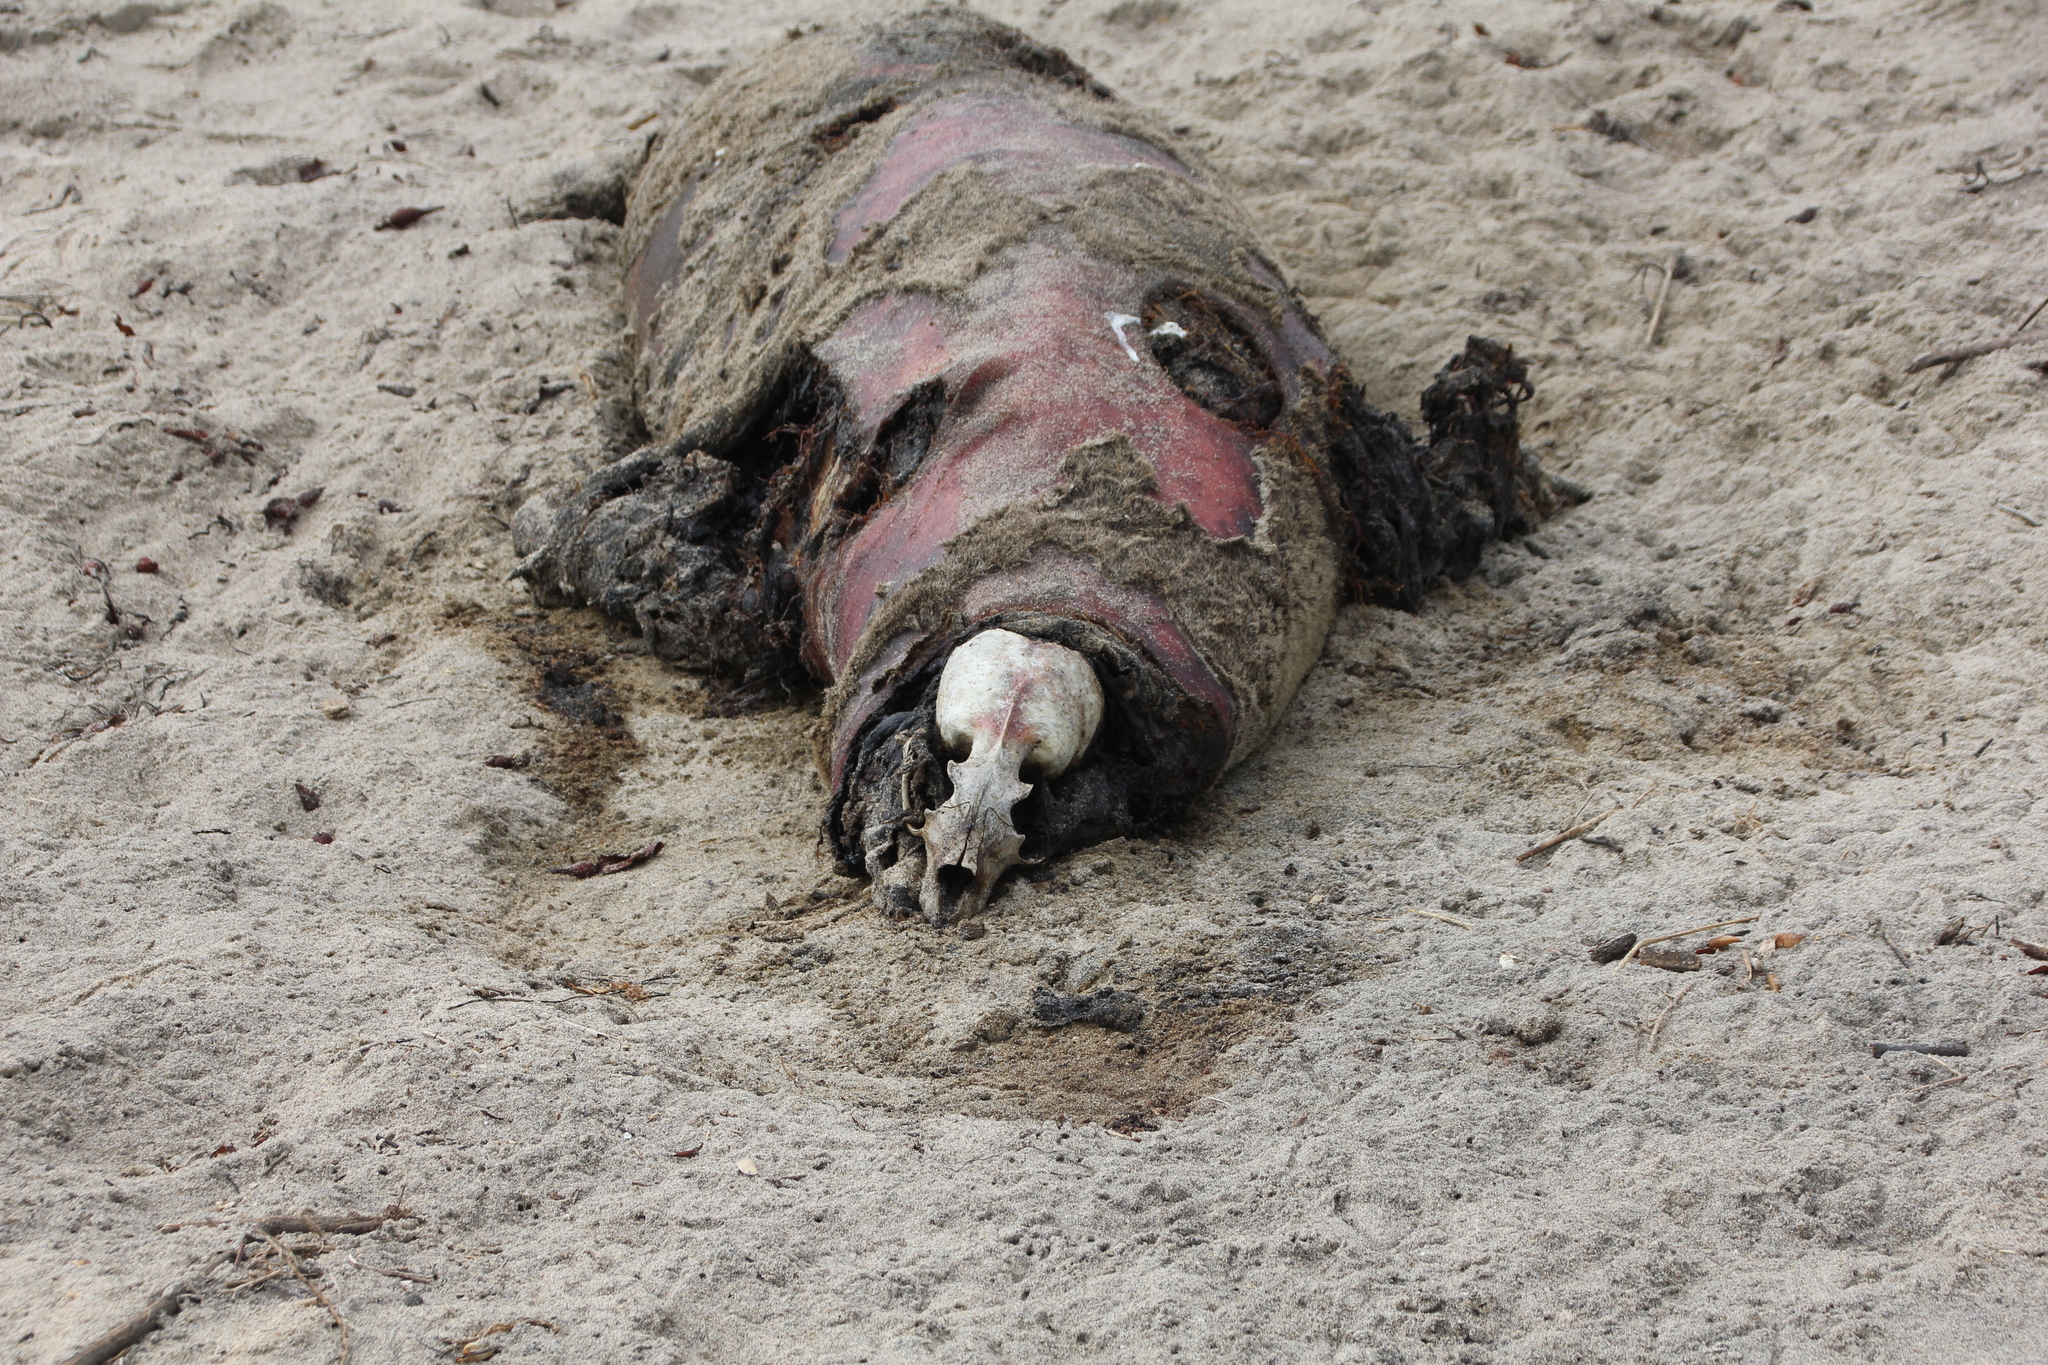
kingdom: Animalia
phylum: Chordata
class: Mammalia
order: Carnivora
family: Otariidae
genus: Zalophus
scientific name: Zalophus californianus
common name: California sea lion
